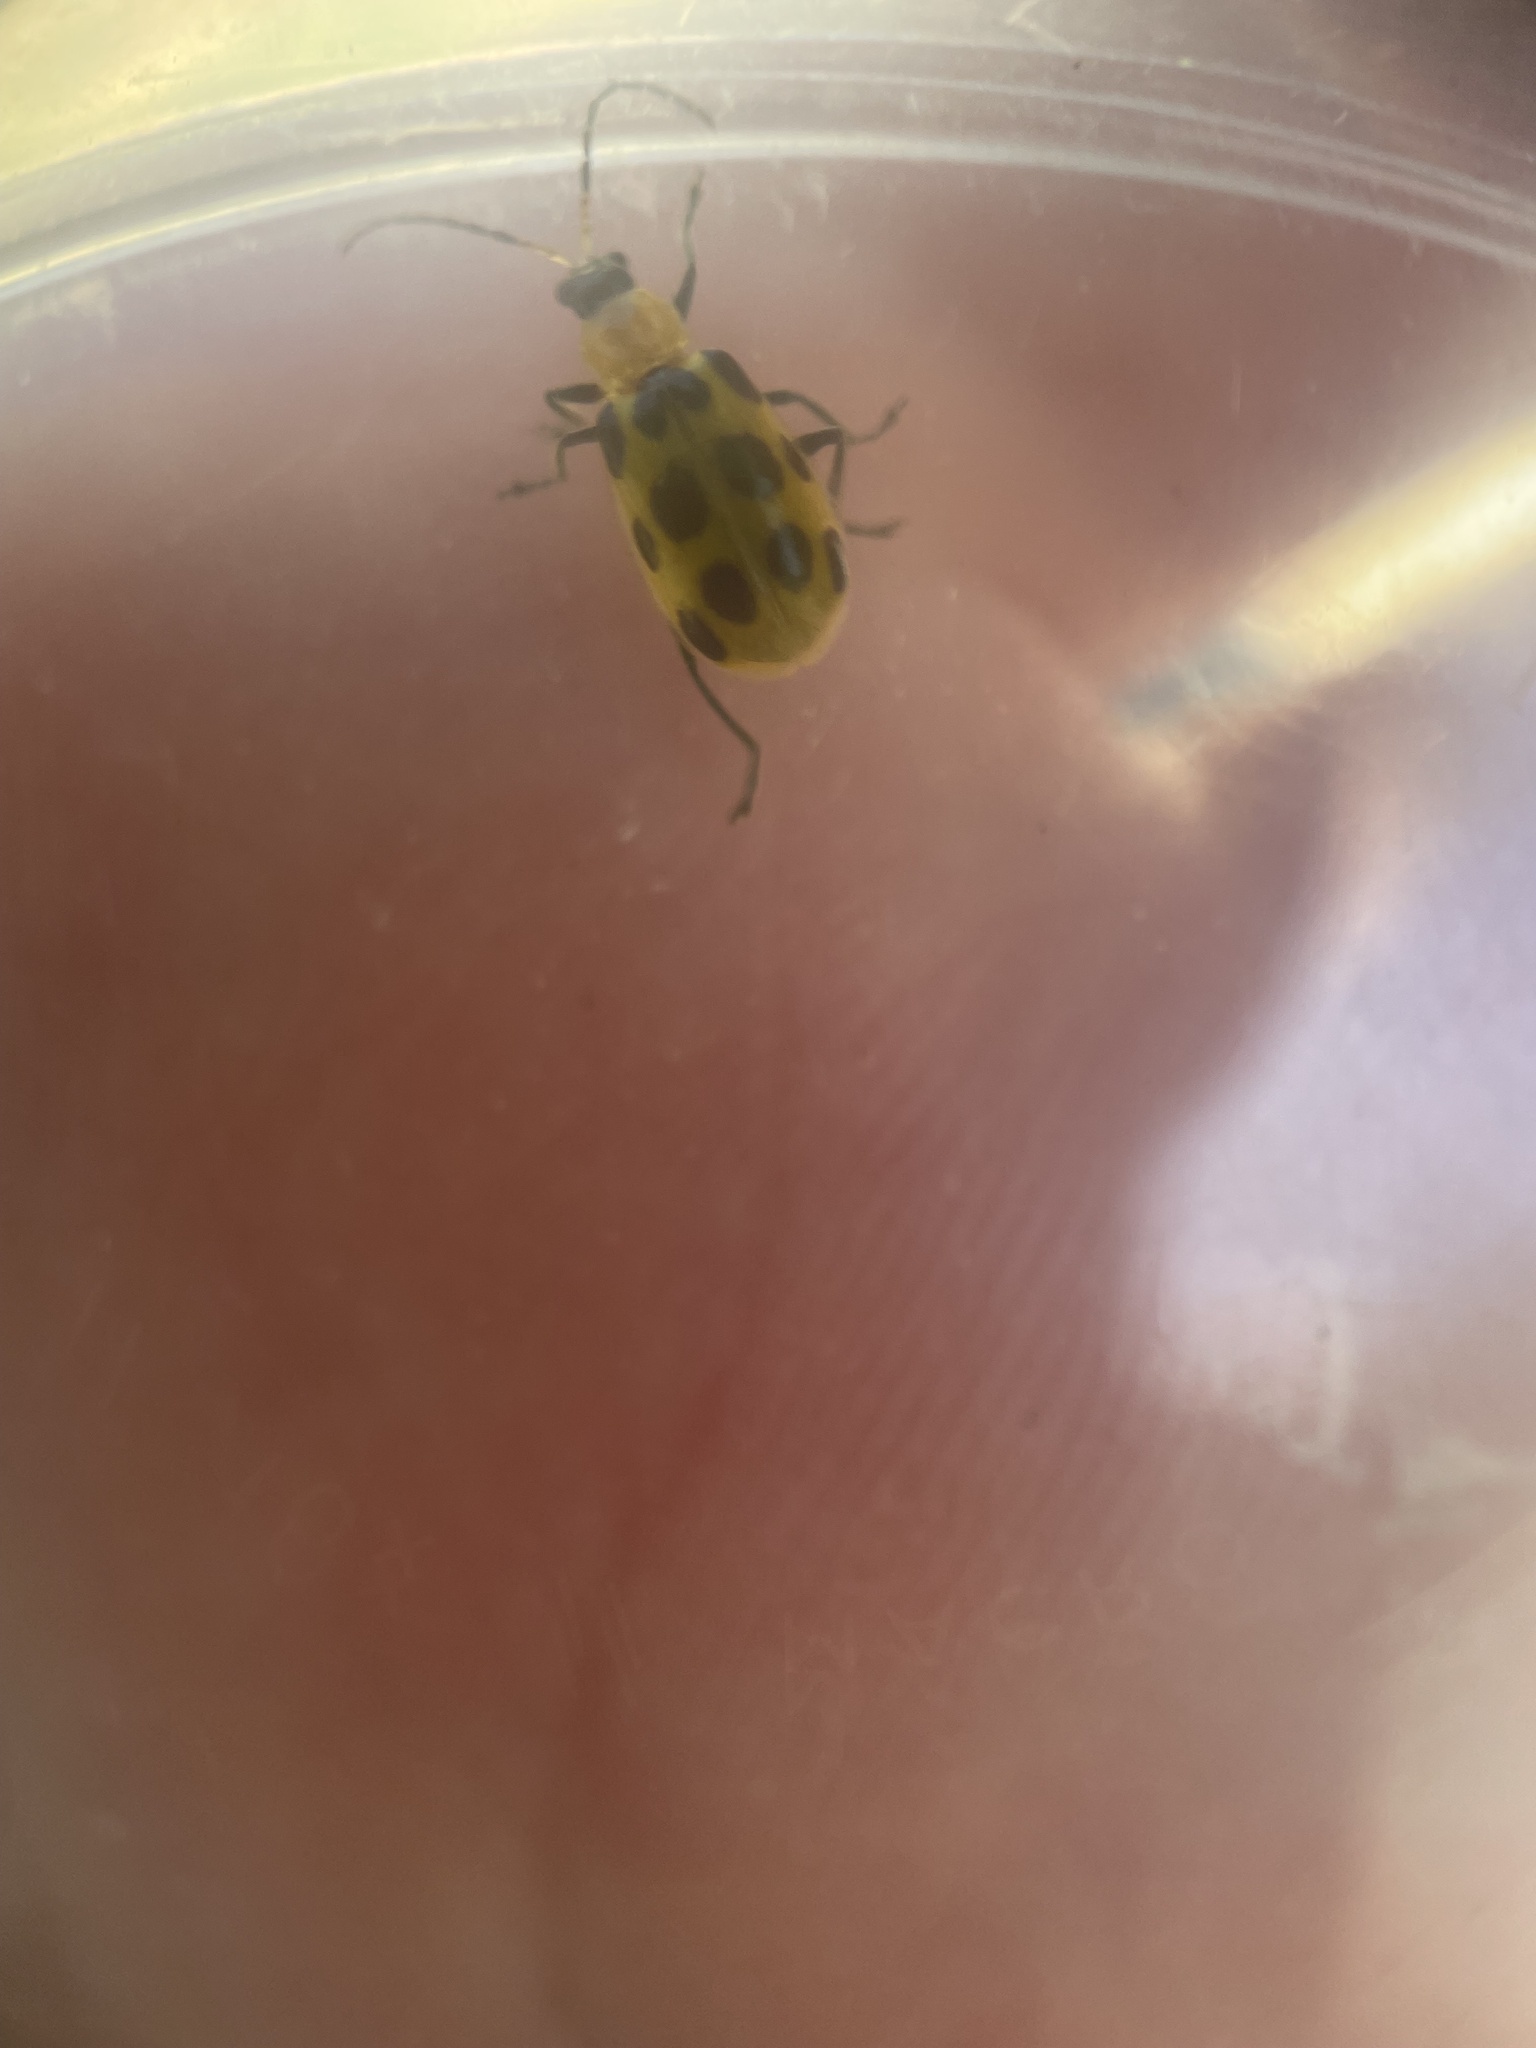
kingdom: Animalia
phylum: Arthropoda
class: Insecta
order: Coleoptera
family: Chrysomelidae
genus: Diabrotica
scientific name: Diabrotica undecimpunctata
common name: Spotted cucumber beetle
